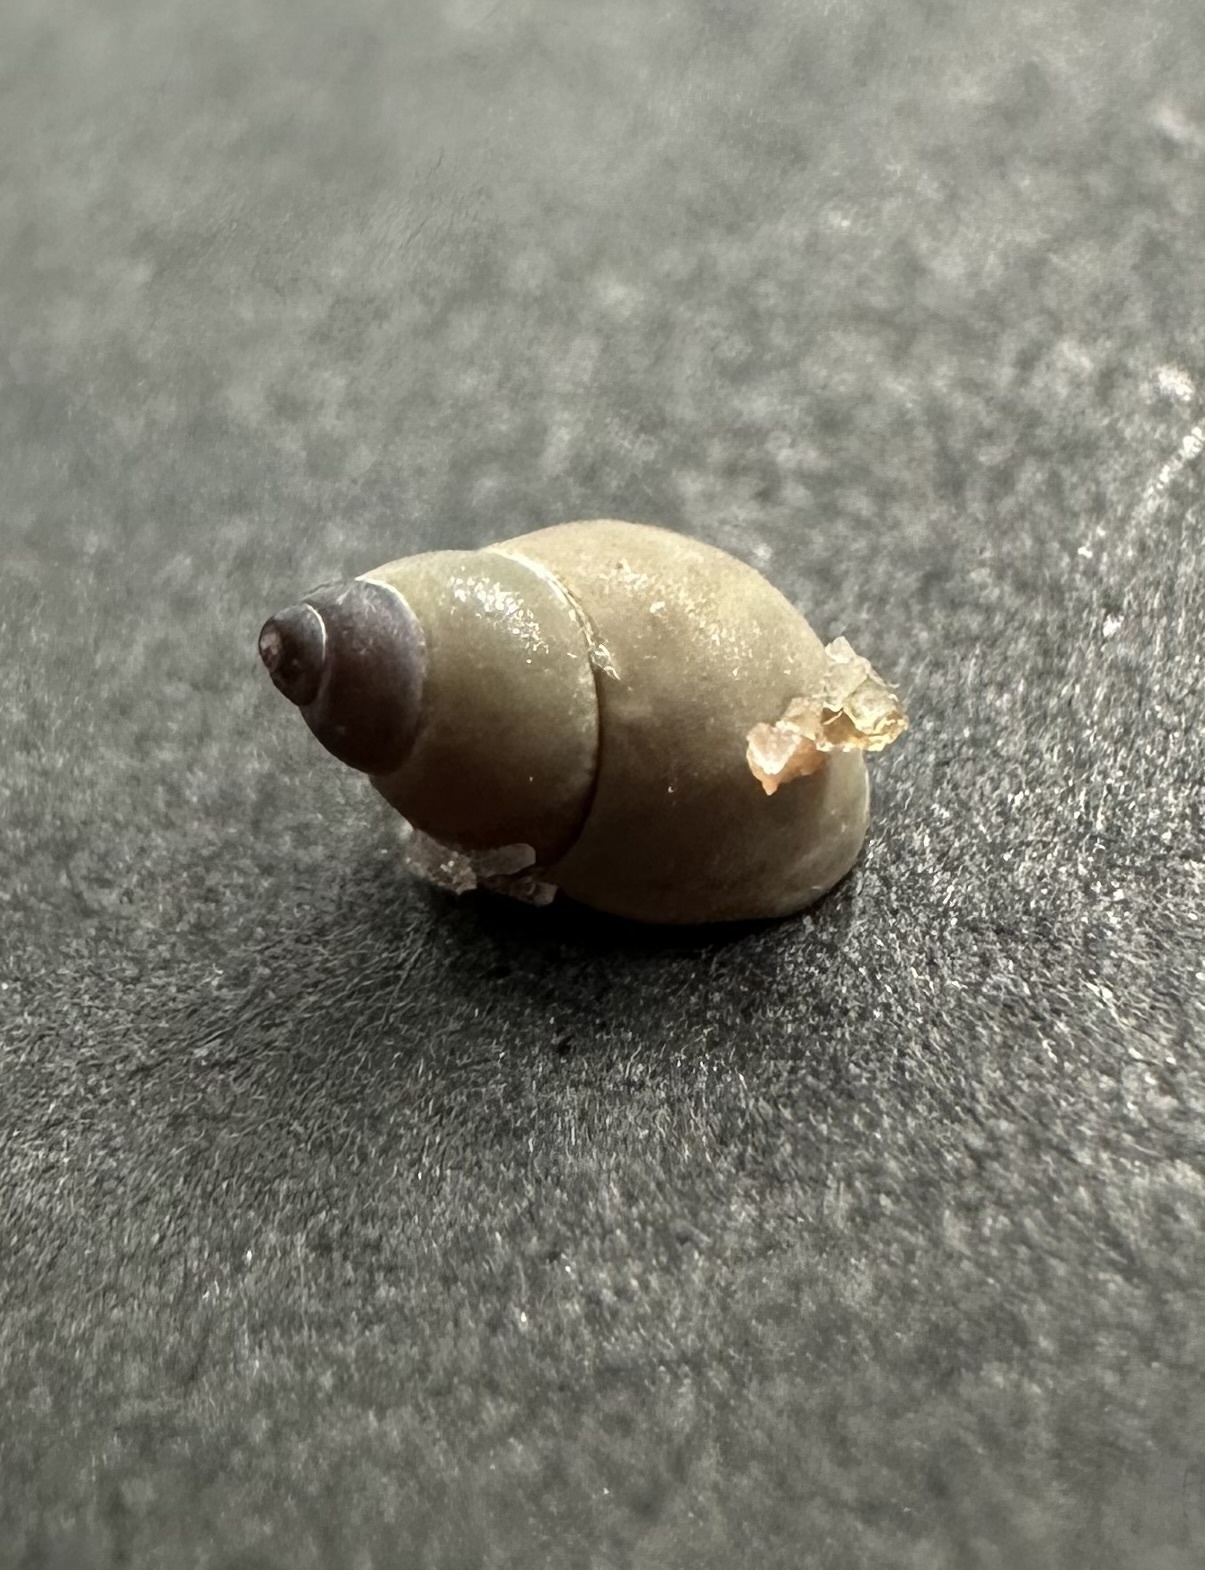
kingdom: Animalia
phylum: Mollusca
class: Gastropoda
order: Littorinimorpha
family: Littorinidae
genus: Lacuna
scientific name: Lacuna vincta
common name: Banded chink shell
